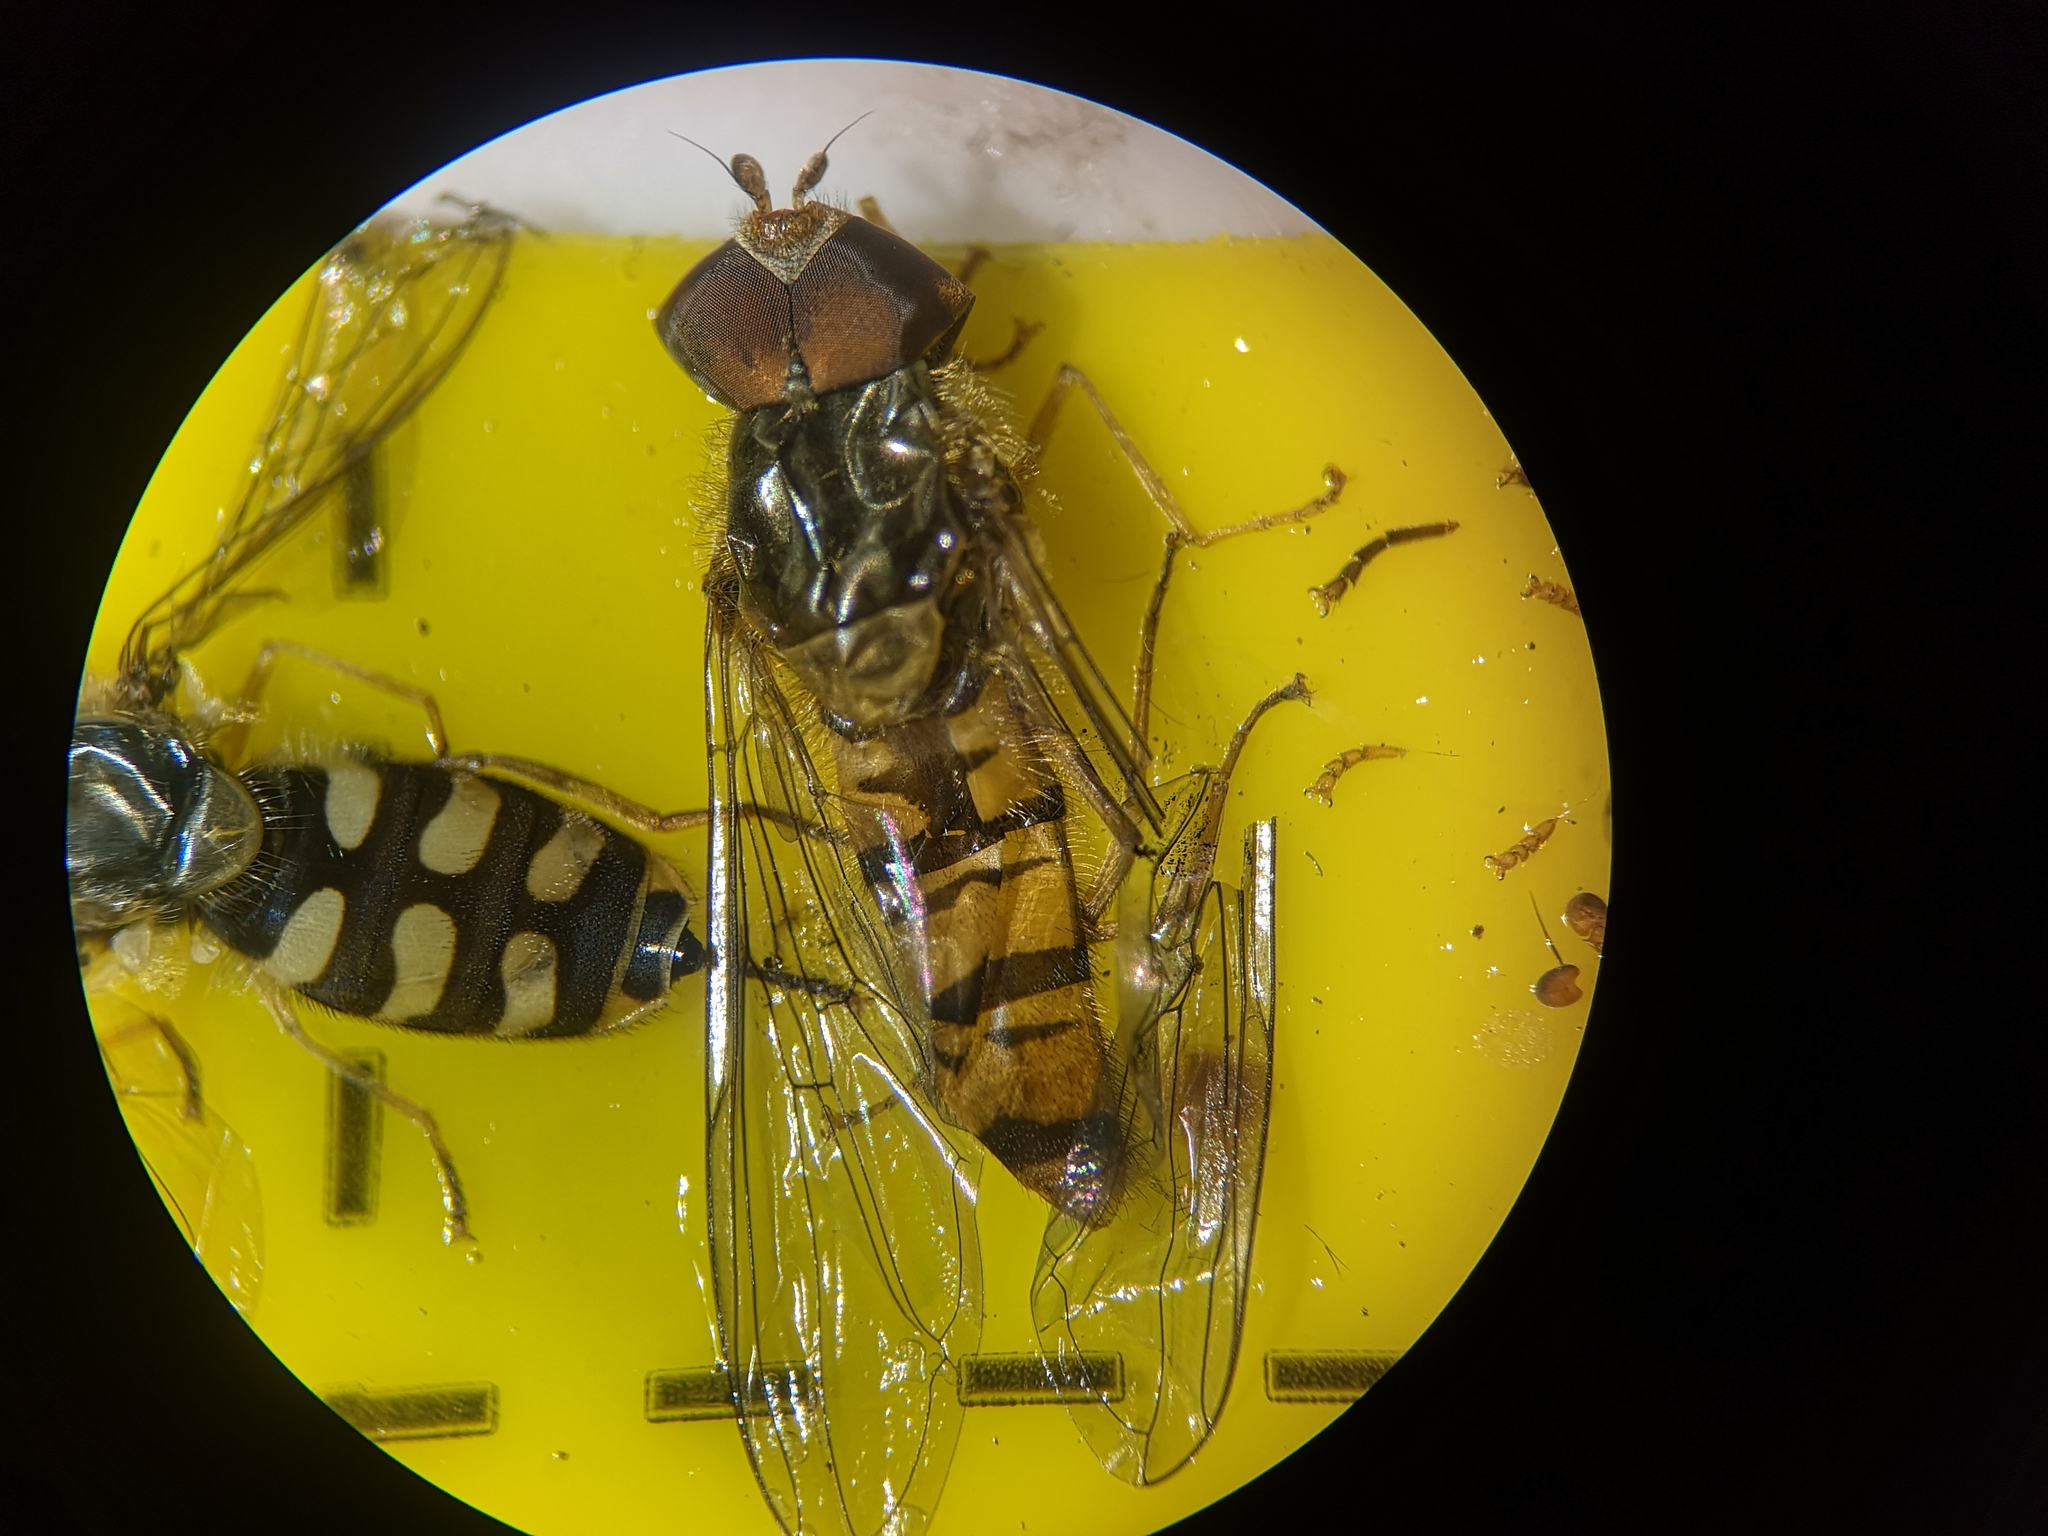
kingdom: Animalia
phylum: Arthropoda
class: Insecta
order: Diptera
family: Syrphidae
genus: Episyrphus
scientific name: Episyrphus balteatus
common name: Marmalade hoverfly
